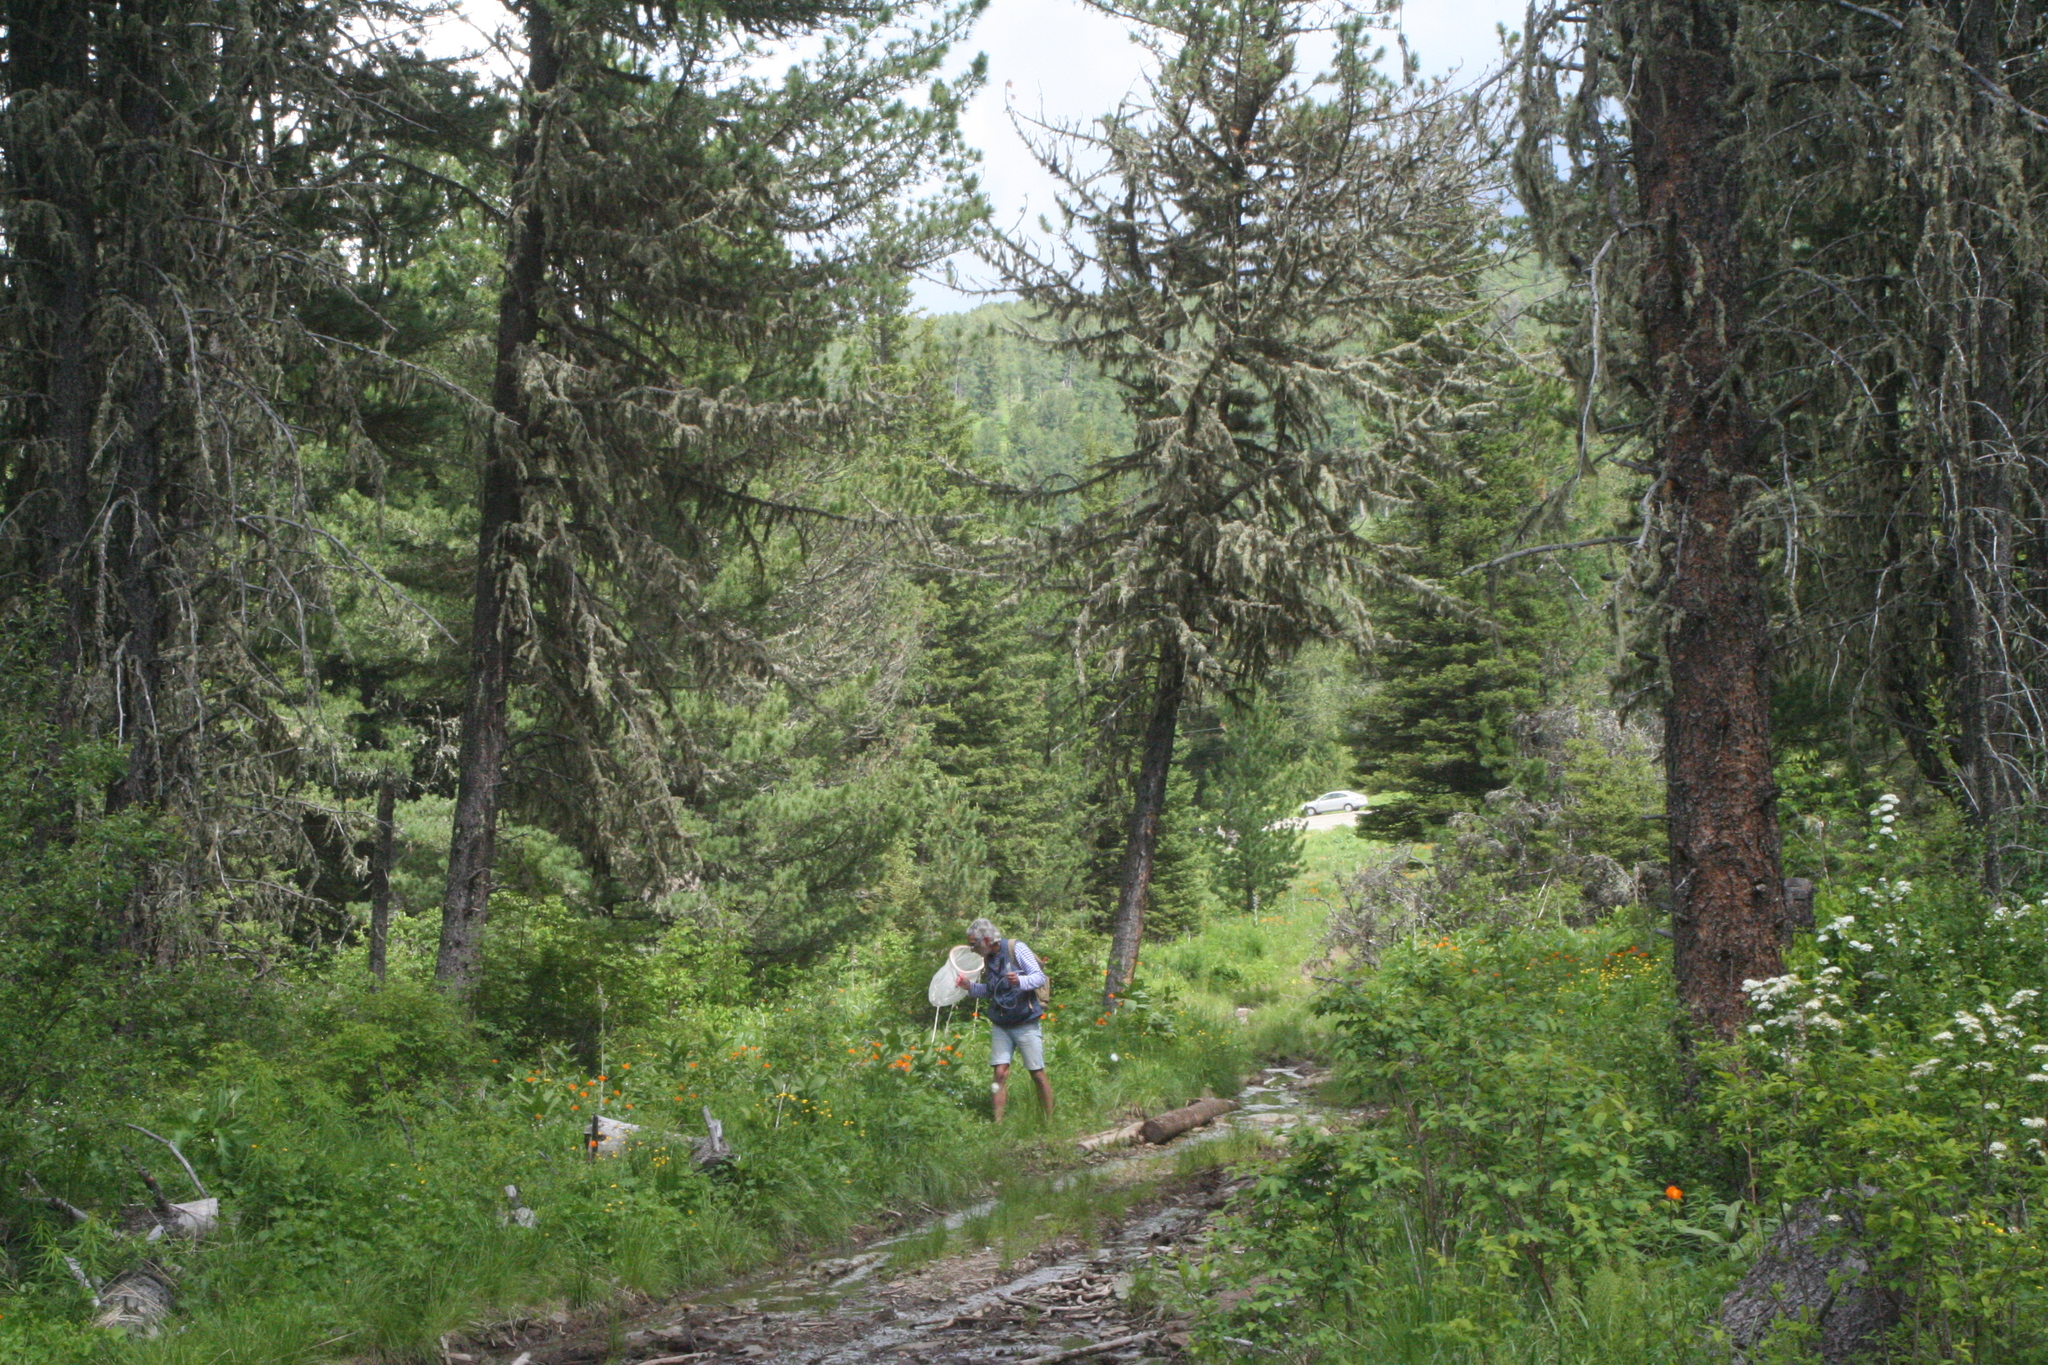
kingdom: Plantae
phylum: Tracheophyta
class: Pinopsida
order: Pinales
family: Pinaceae
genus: Pinus
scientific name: Pinus sibirica
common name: Siberian pine
